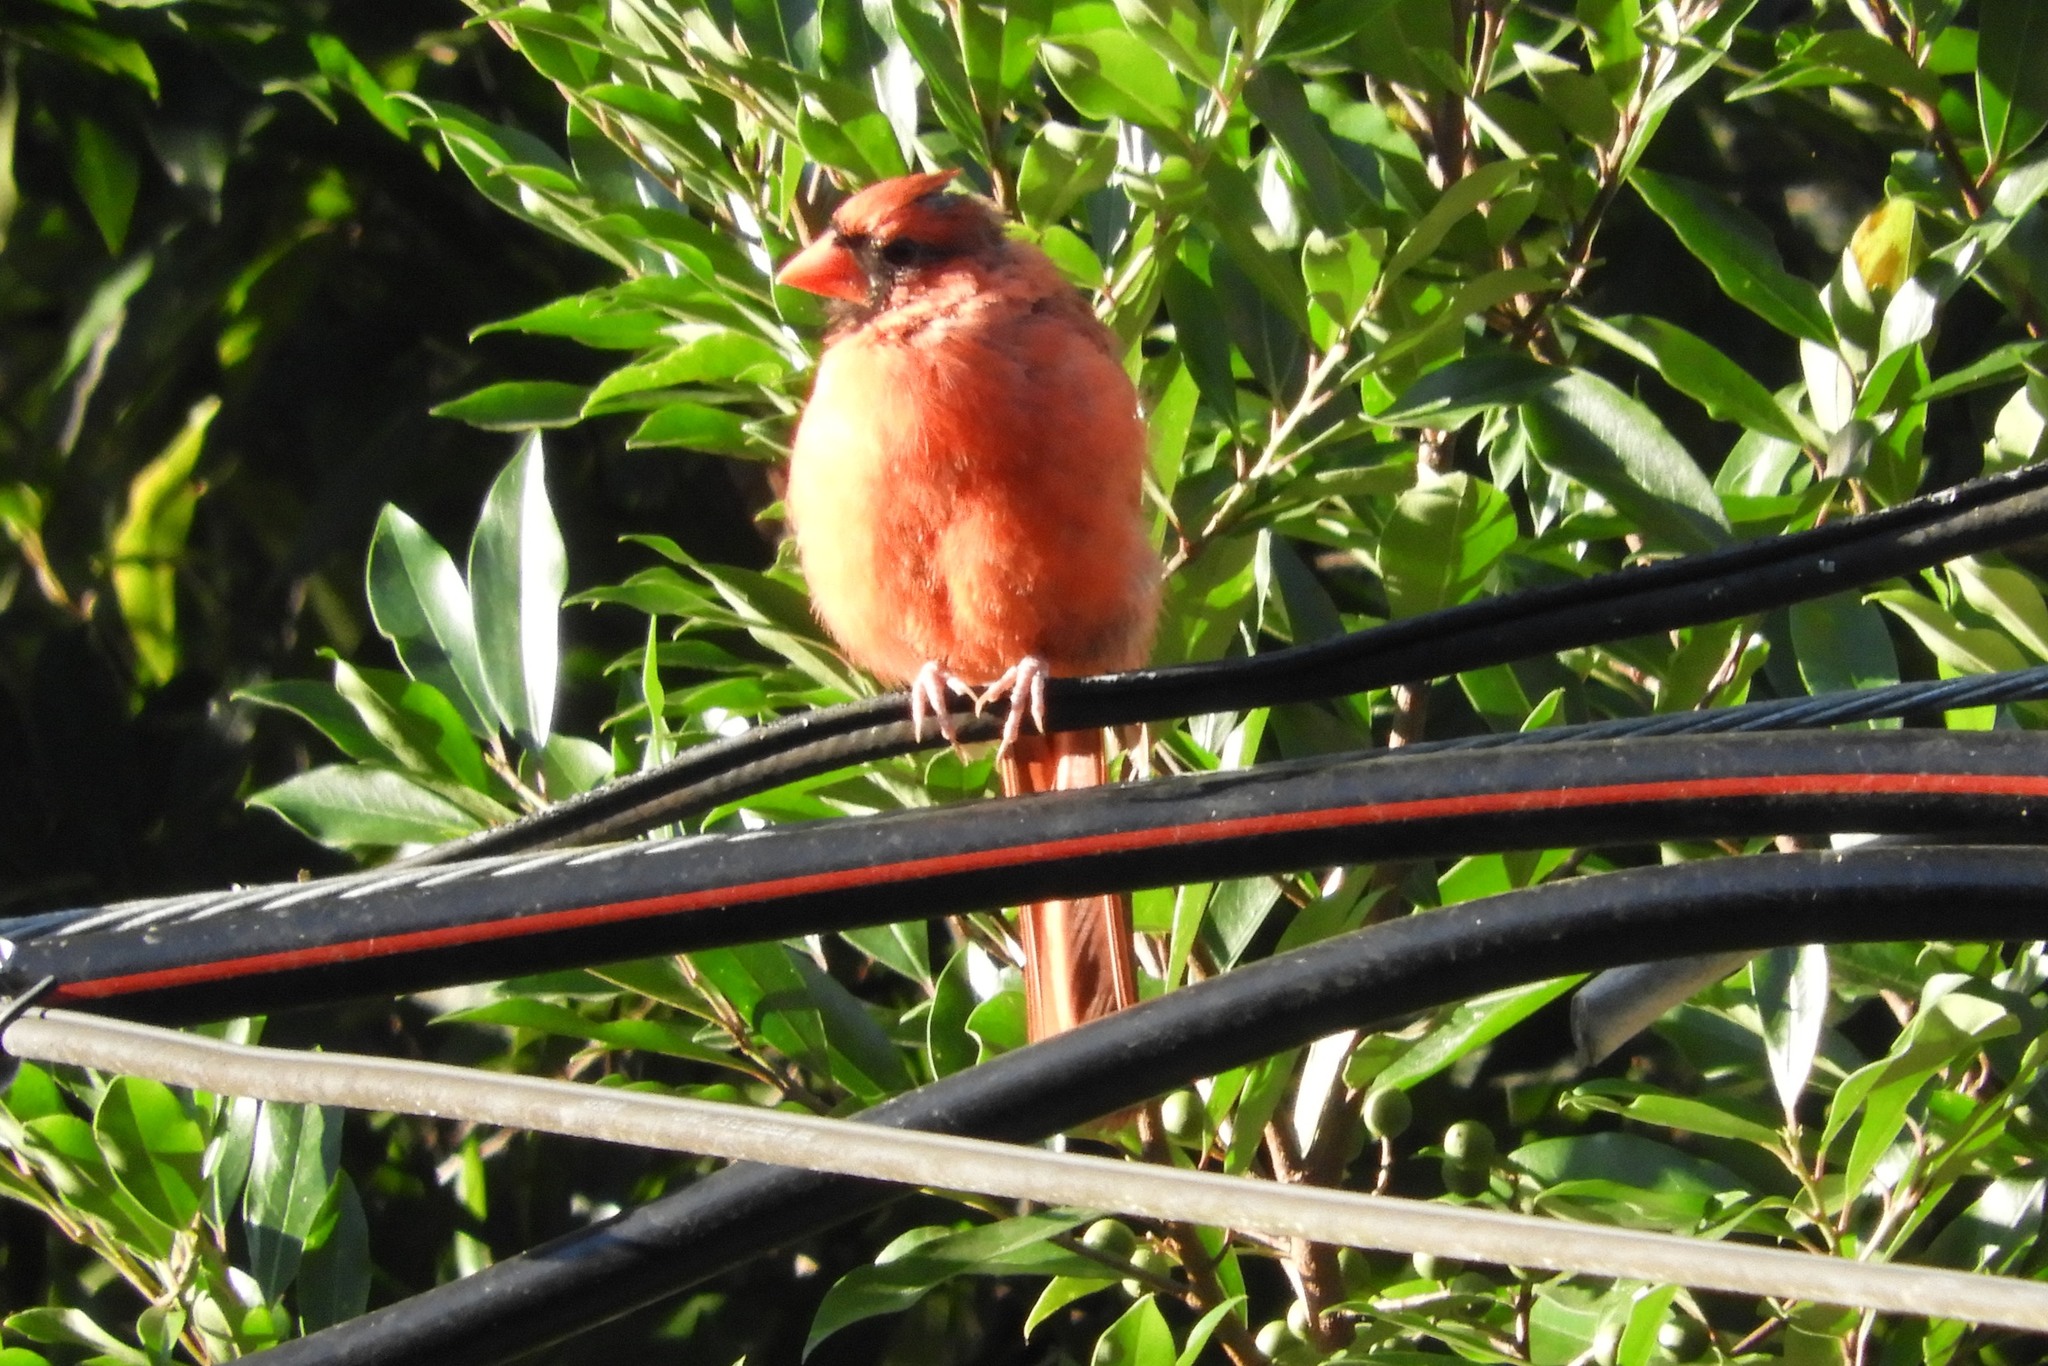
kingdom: Animalia
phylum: Chordata
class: Aves
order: Passeriformes
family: Cardinalidae
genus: Cardinalis
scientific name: Cardinalis cardinalis
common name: Northern cardinal
